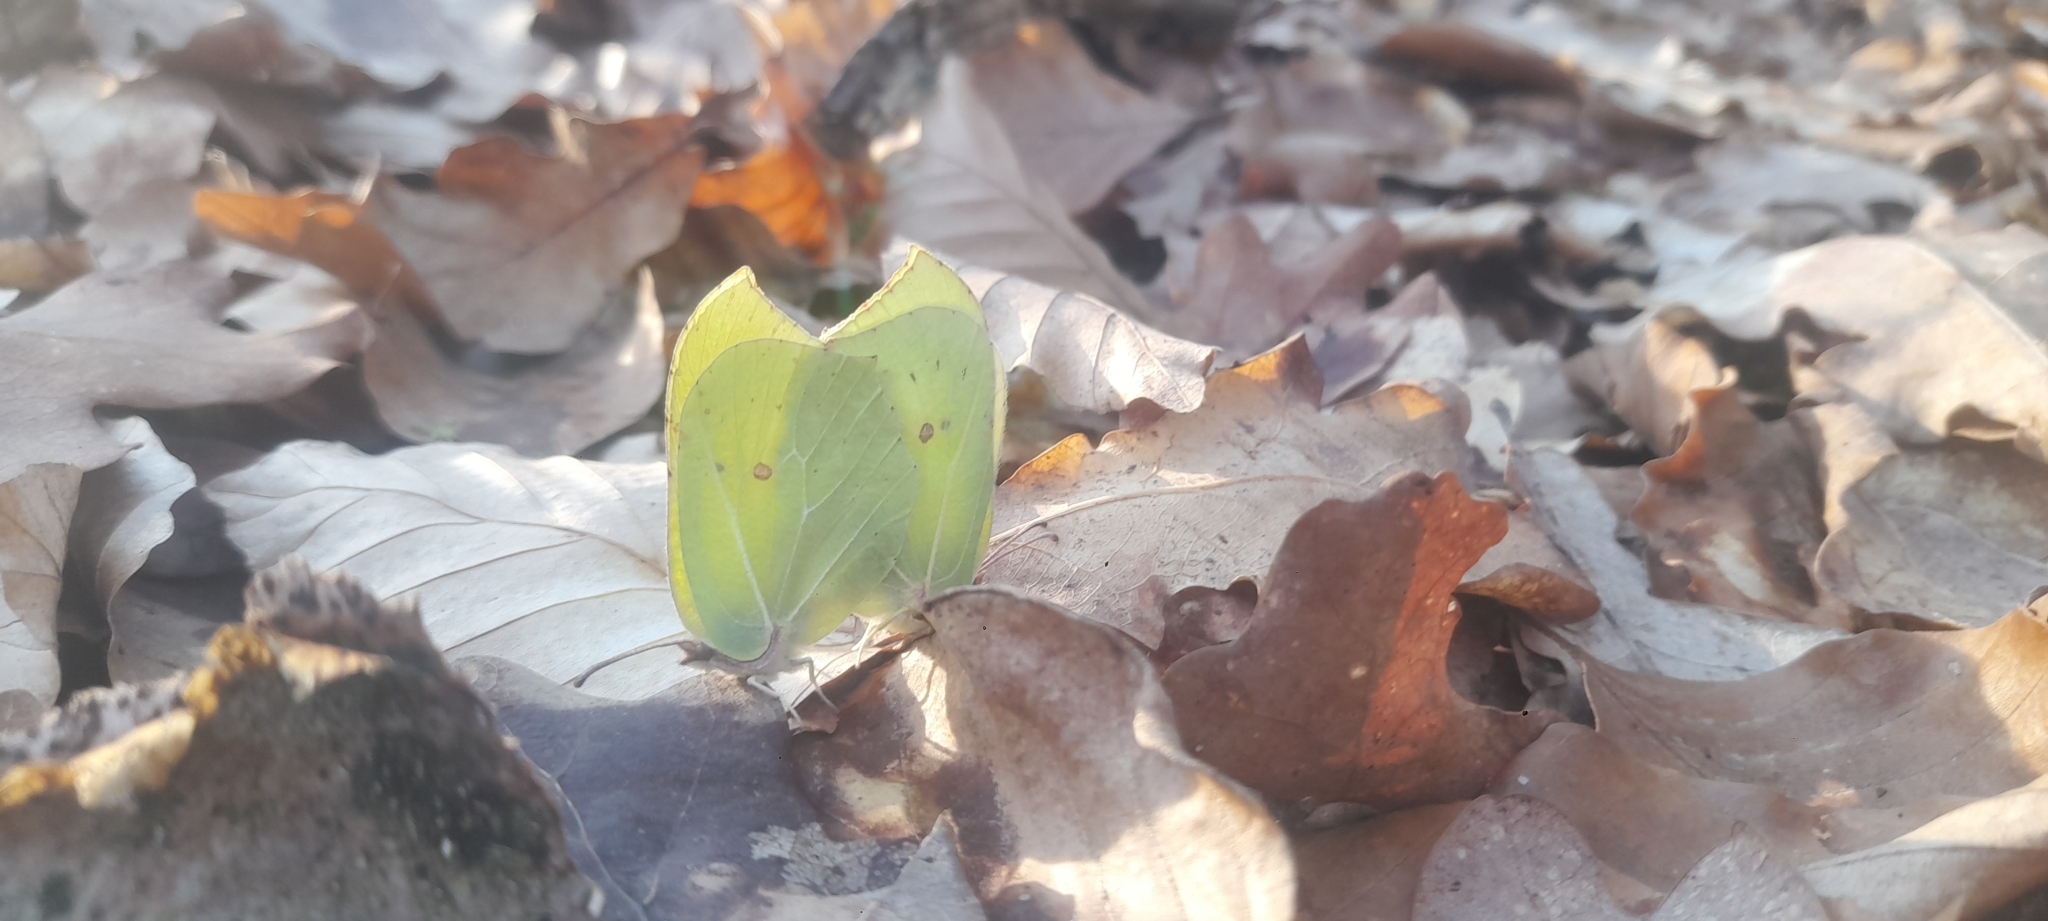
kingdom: Animalia
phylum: Arthropoda
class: Insecta
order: Lepidoptera
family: Pieridae
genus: Gonepteryx
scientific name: Gonepteryx rhamni
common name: Brimstone
